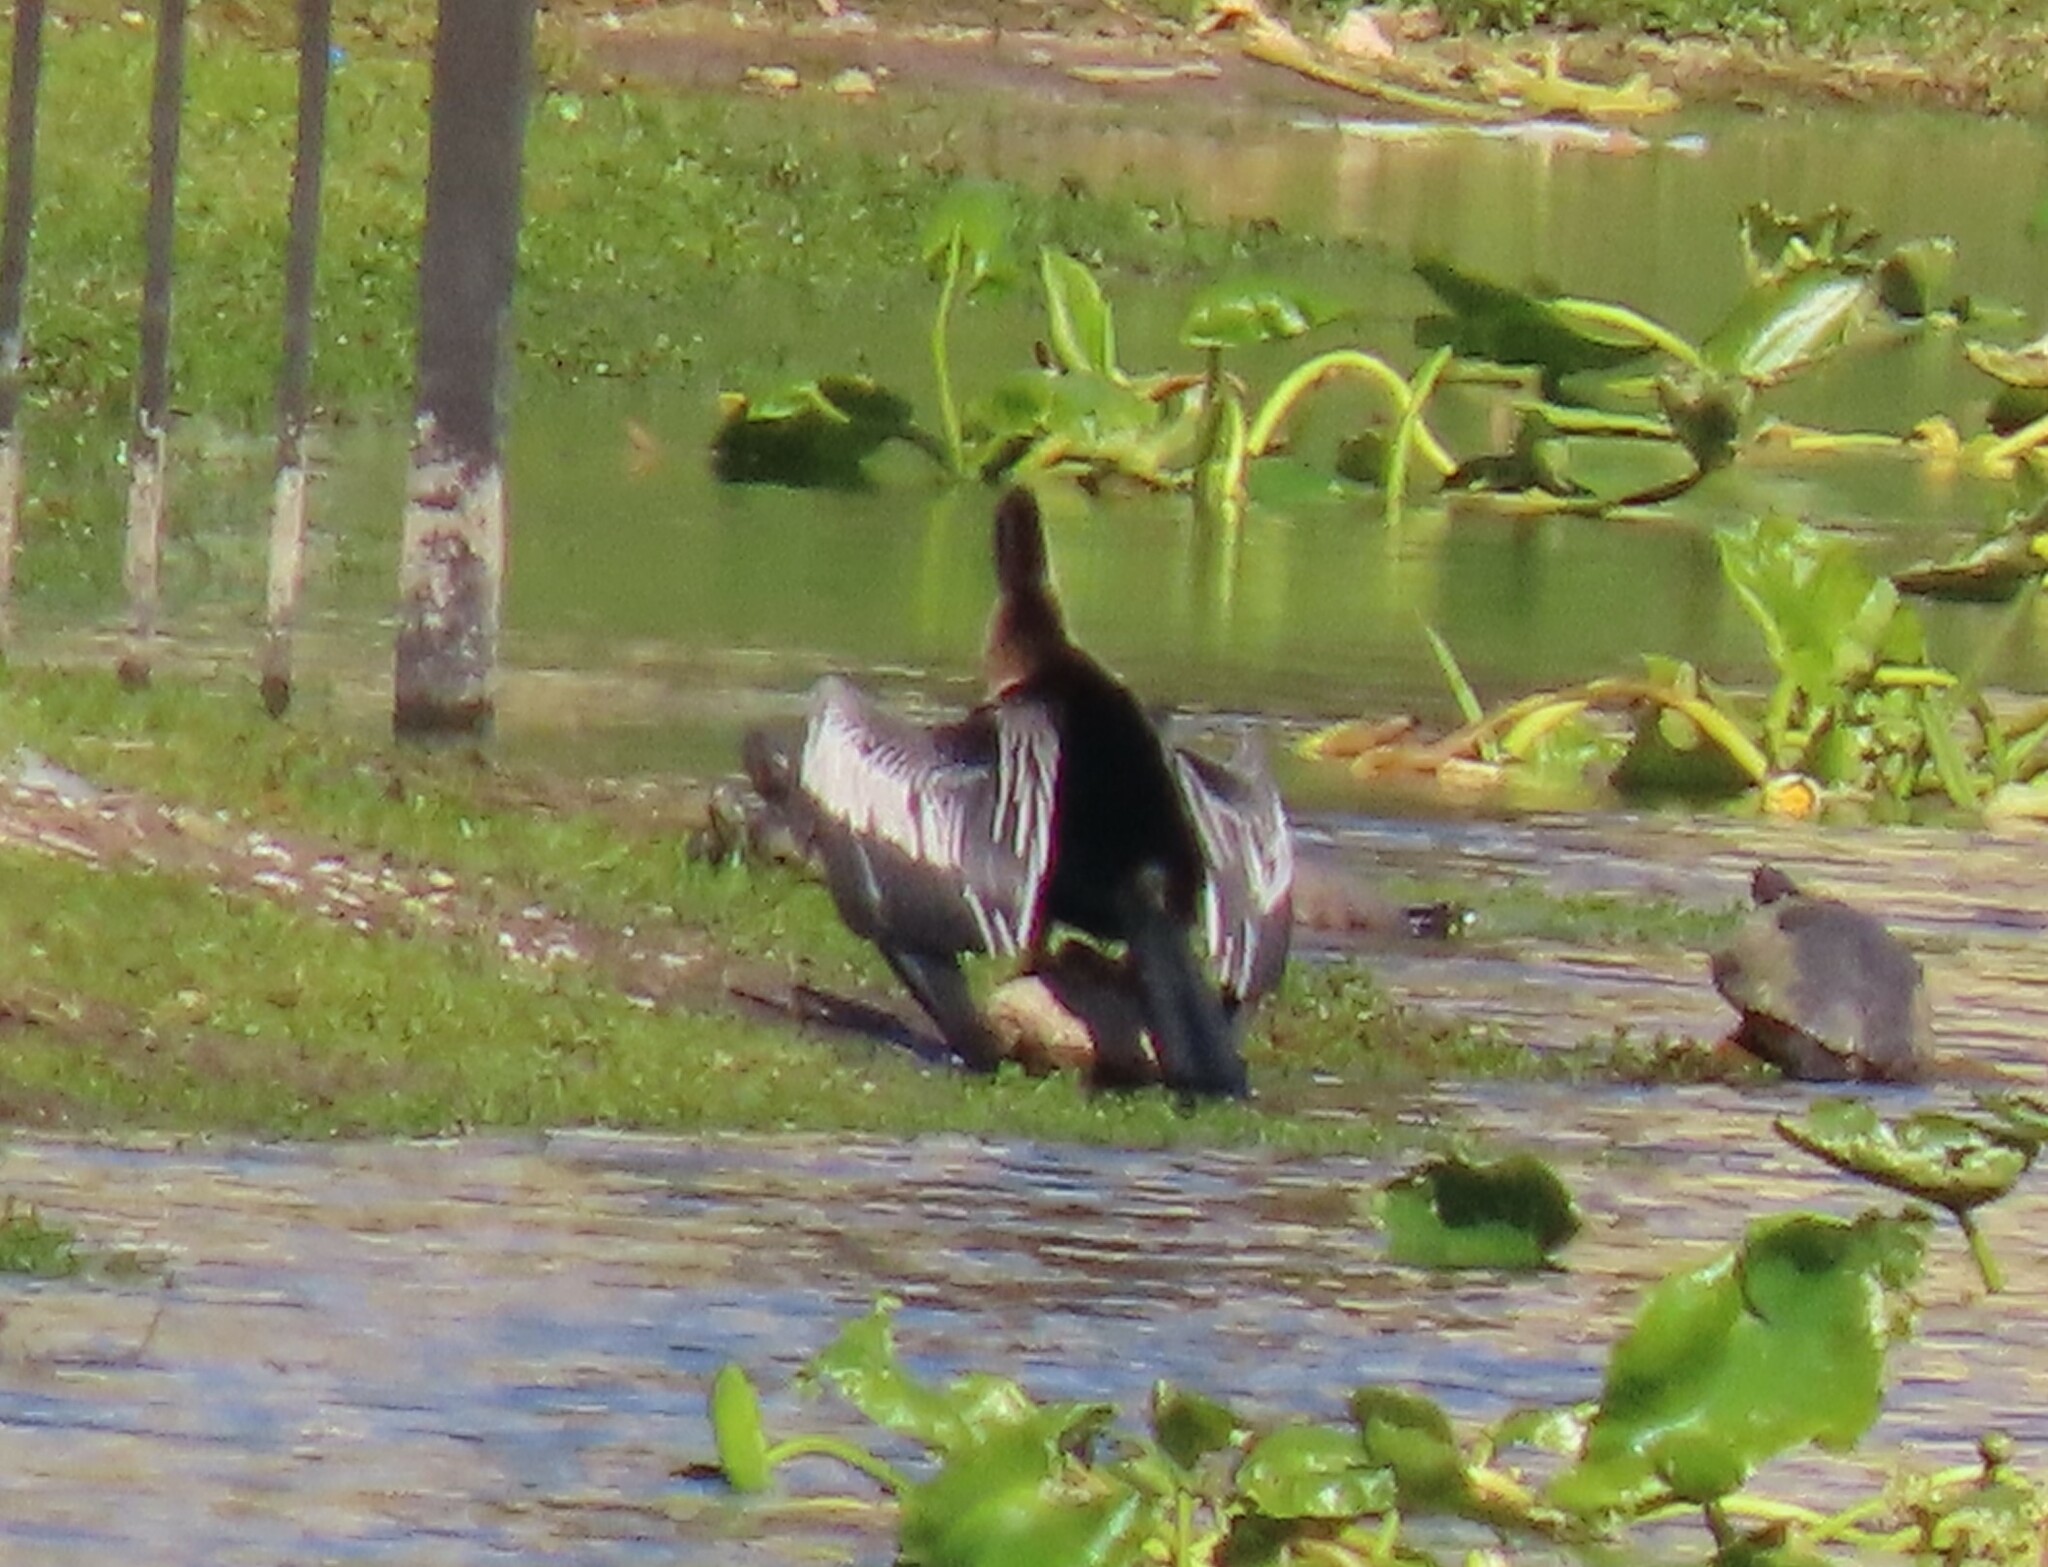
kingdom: Animalia
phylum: Chordata
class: Aves
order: Suliformes
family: Anhingidae
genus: Anhinga
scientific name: Anhinga anhinga
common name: Anhinga
